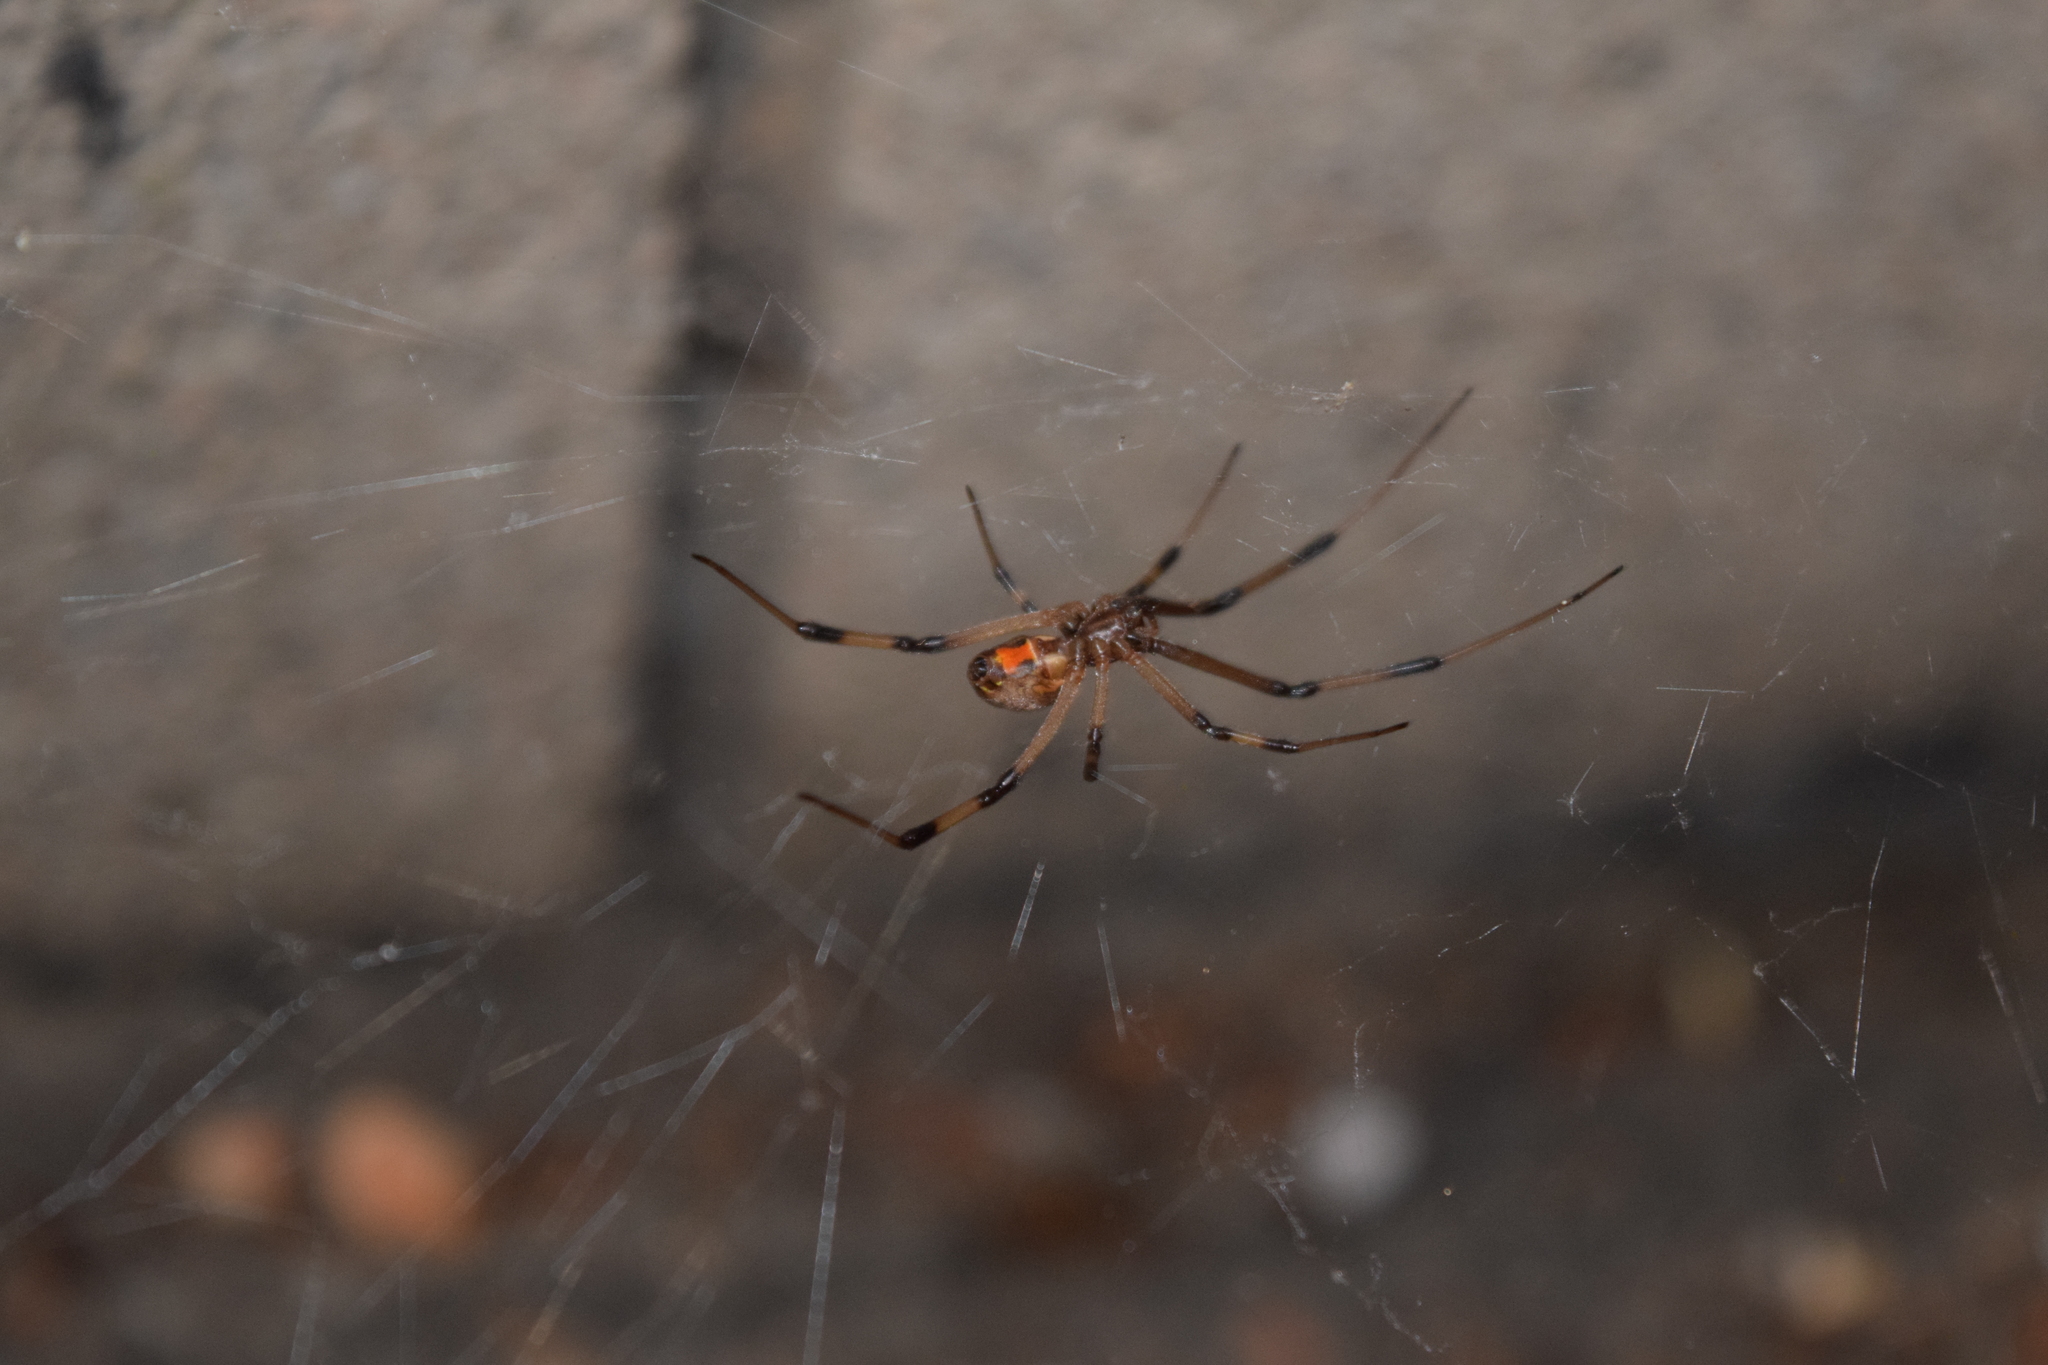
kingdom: Animalia
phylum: Arthropoda
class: Arachnida
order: Araneae
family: Theridiidae
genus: Latrodectus
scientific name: Latrodectus geometricus
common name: Brown widow spider
